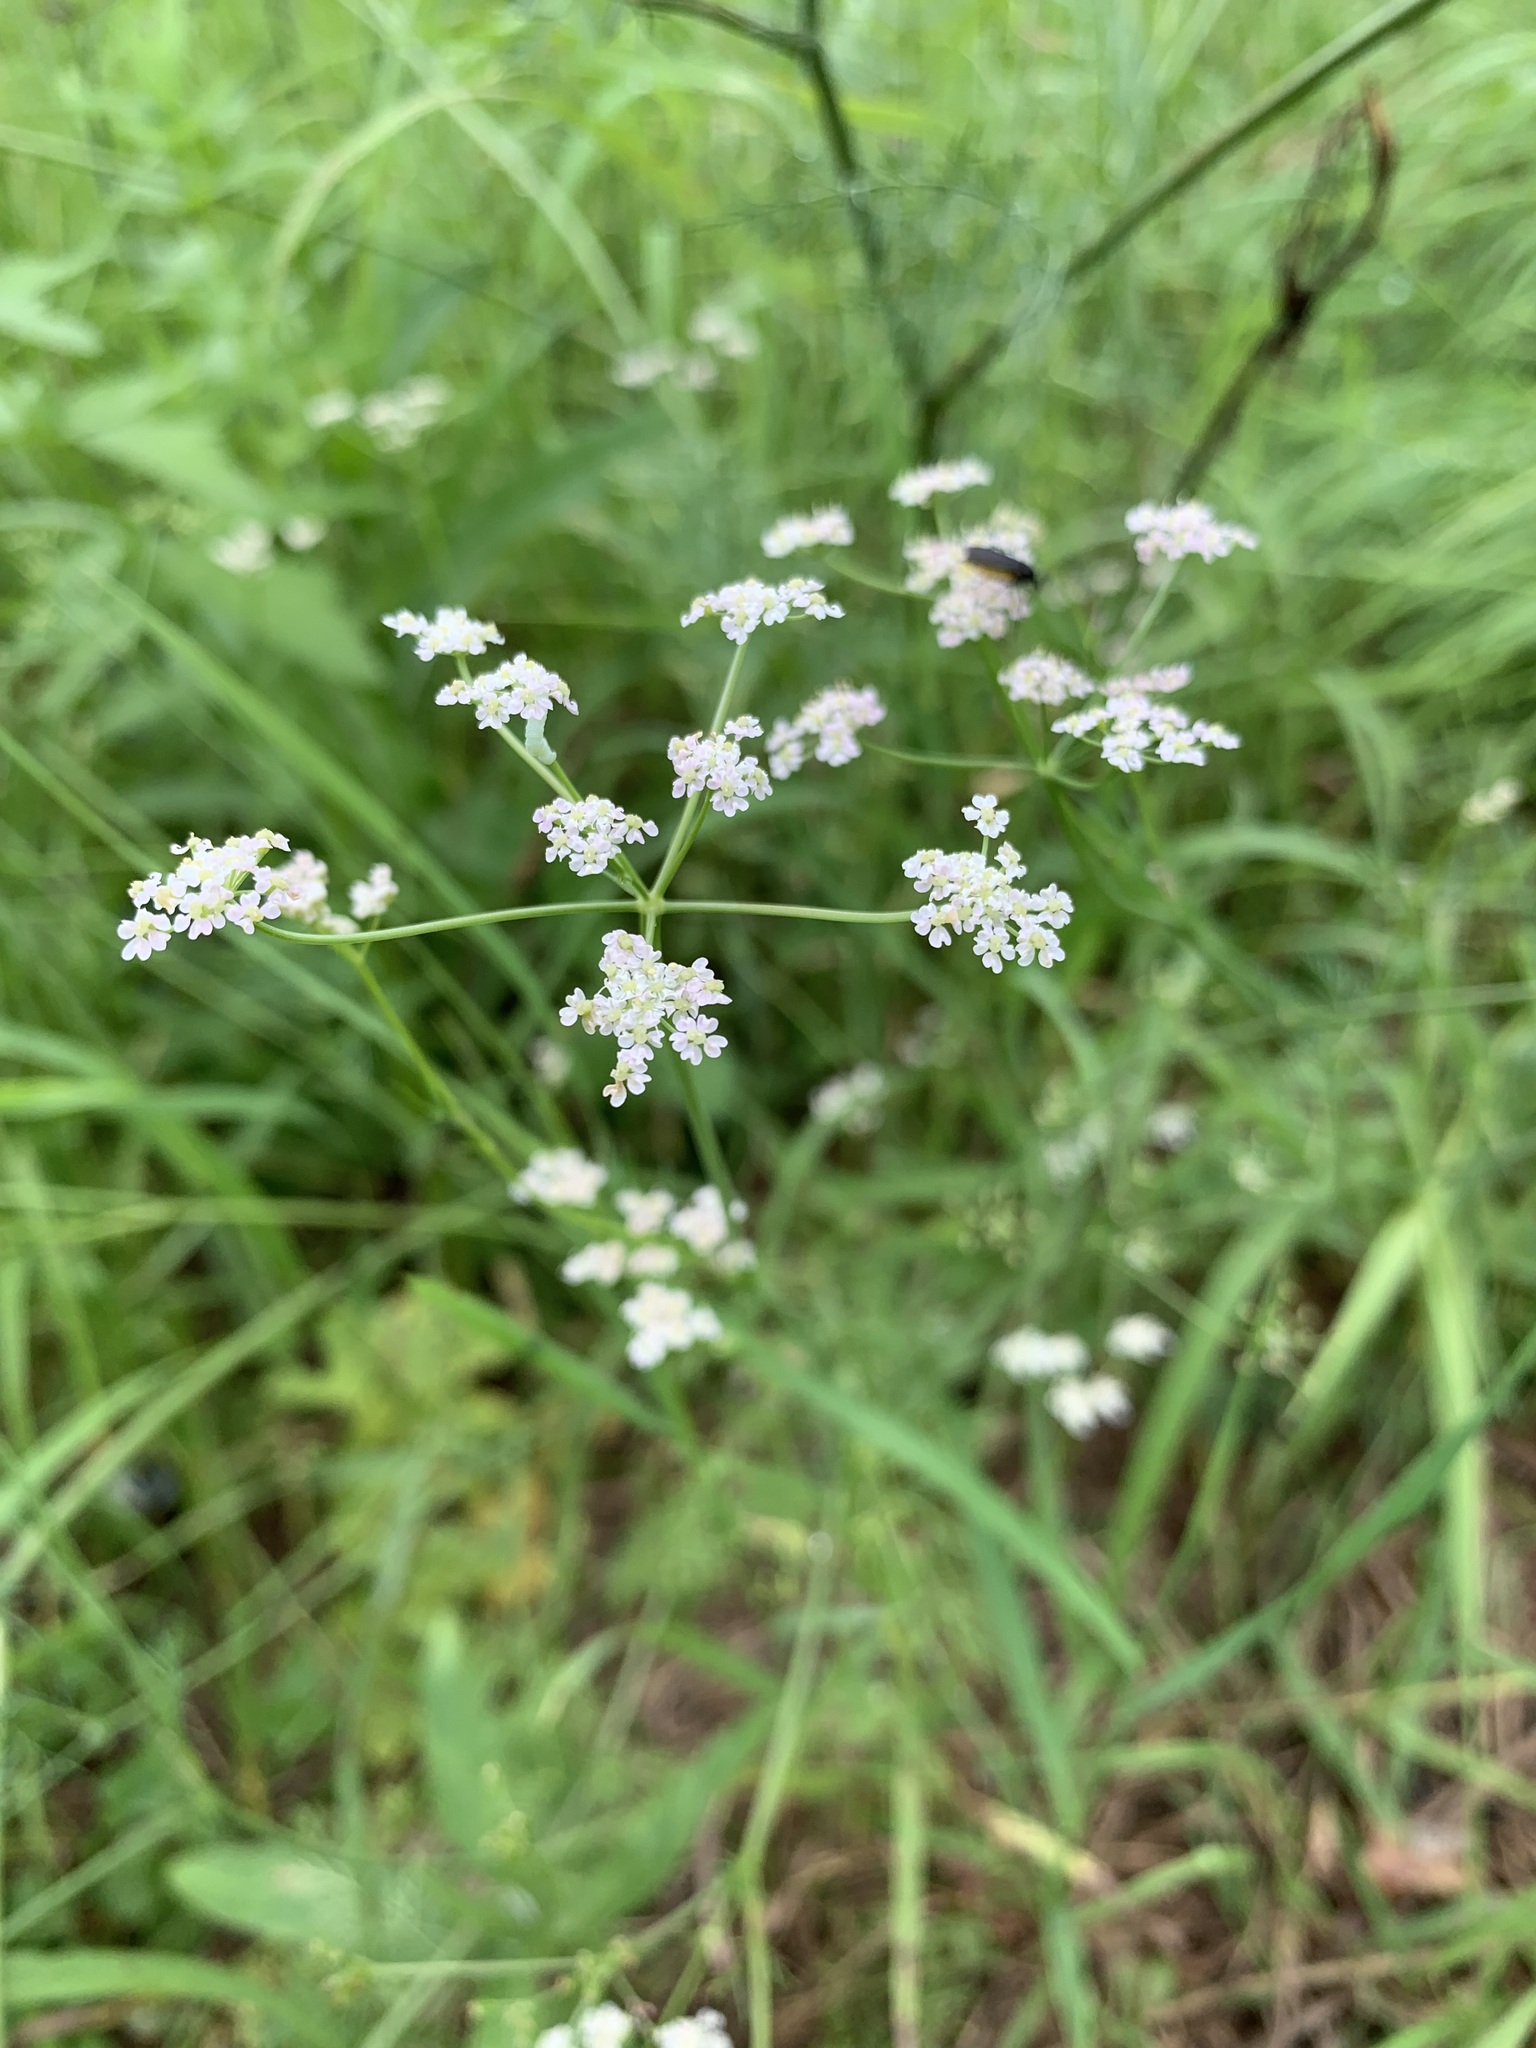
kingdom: Plantae
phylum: Tracheophyta
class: Magnoliopsida
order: Apiales
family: Apiaceae
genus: Carum
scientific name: Carum carvi
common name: Caraway
